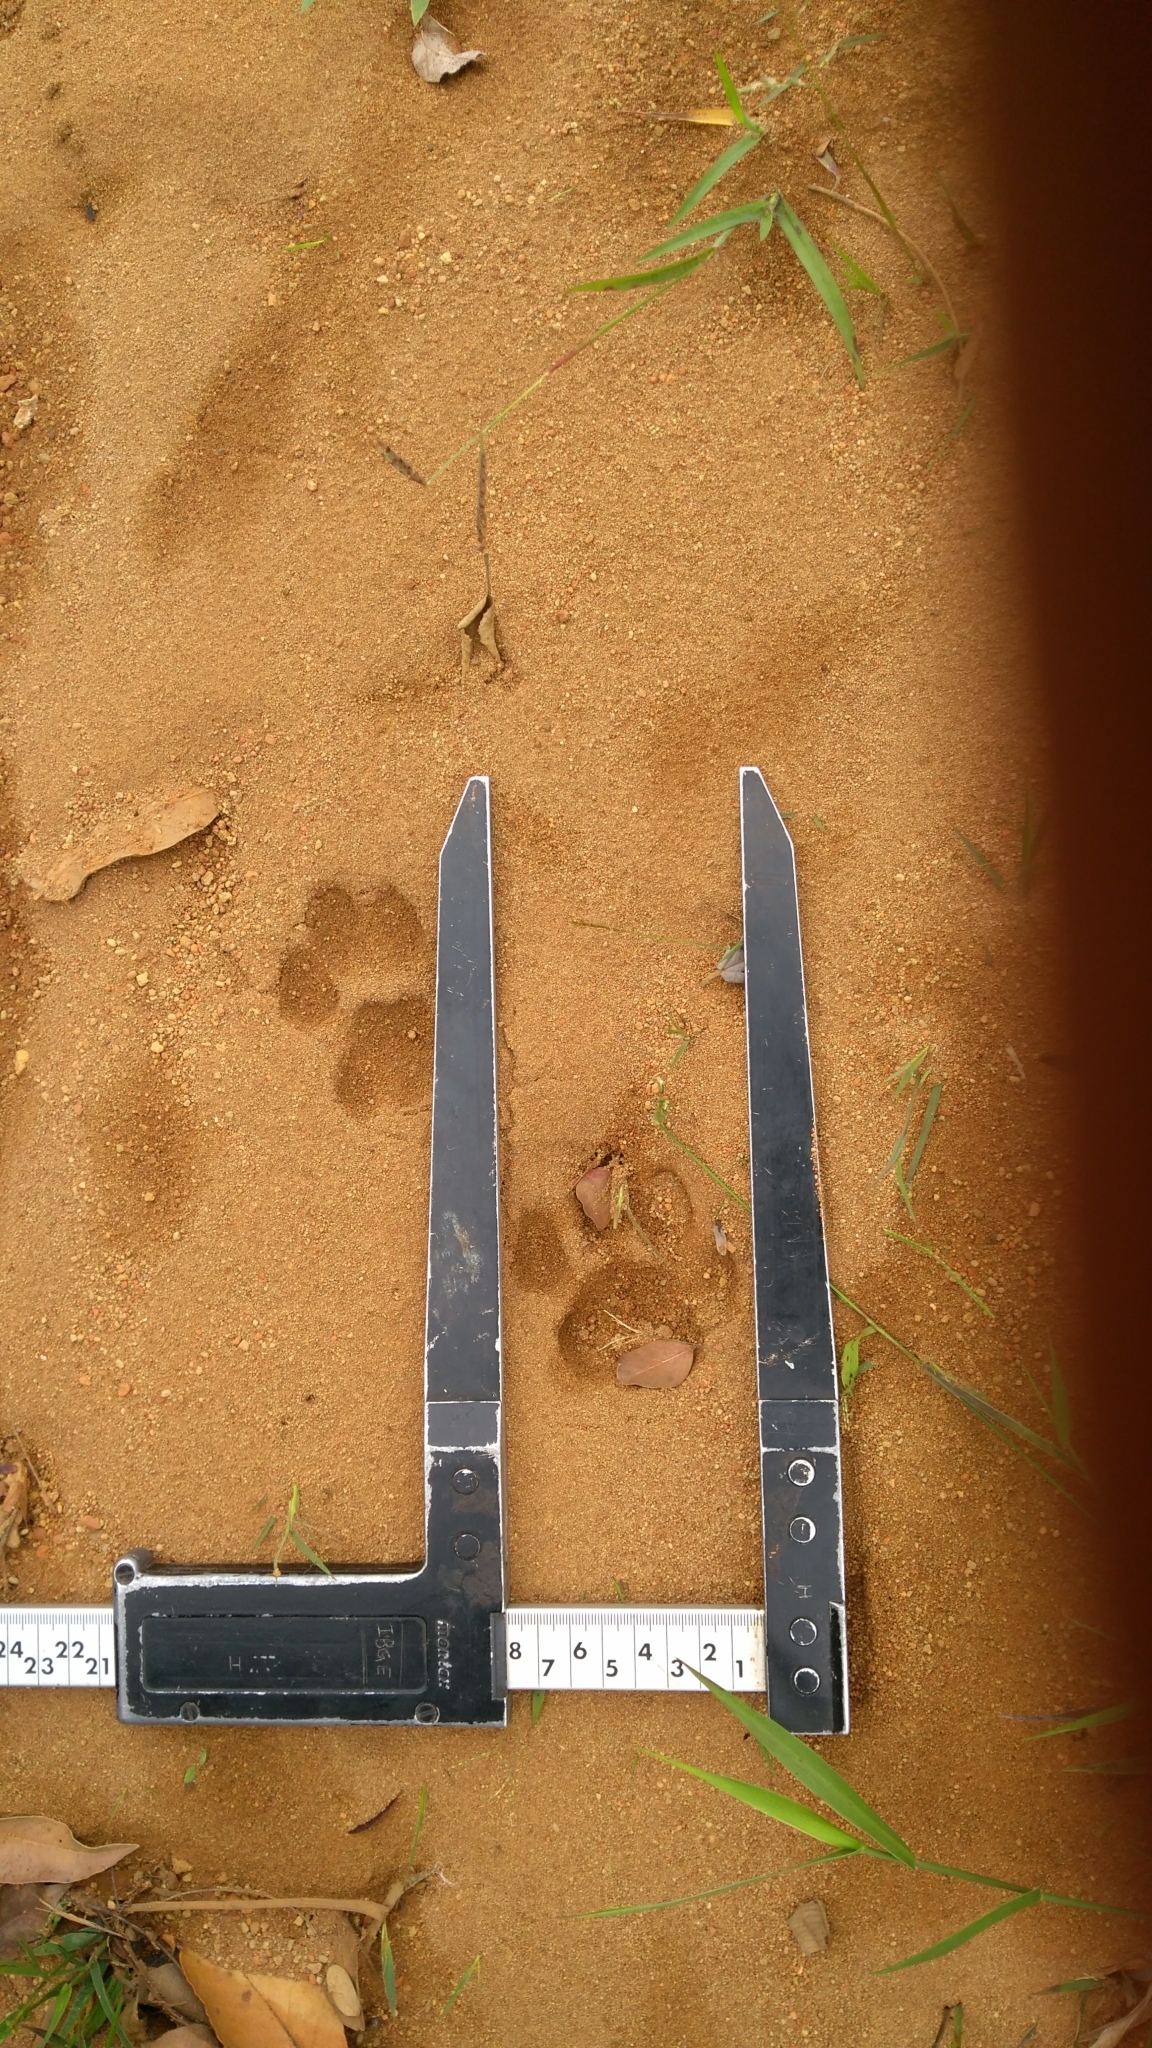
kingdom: Animalia
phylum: Chordata
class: Mammalia
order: Carnivora
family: Felidae
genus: Puma
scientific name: Puma concolor
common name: Puma
